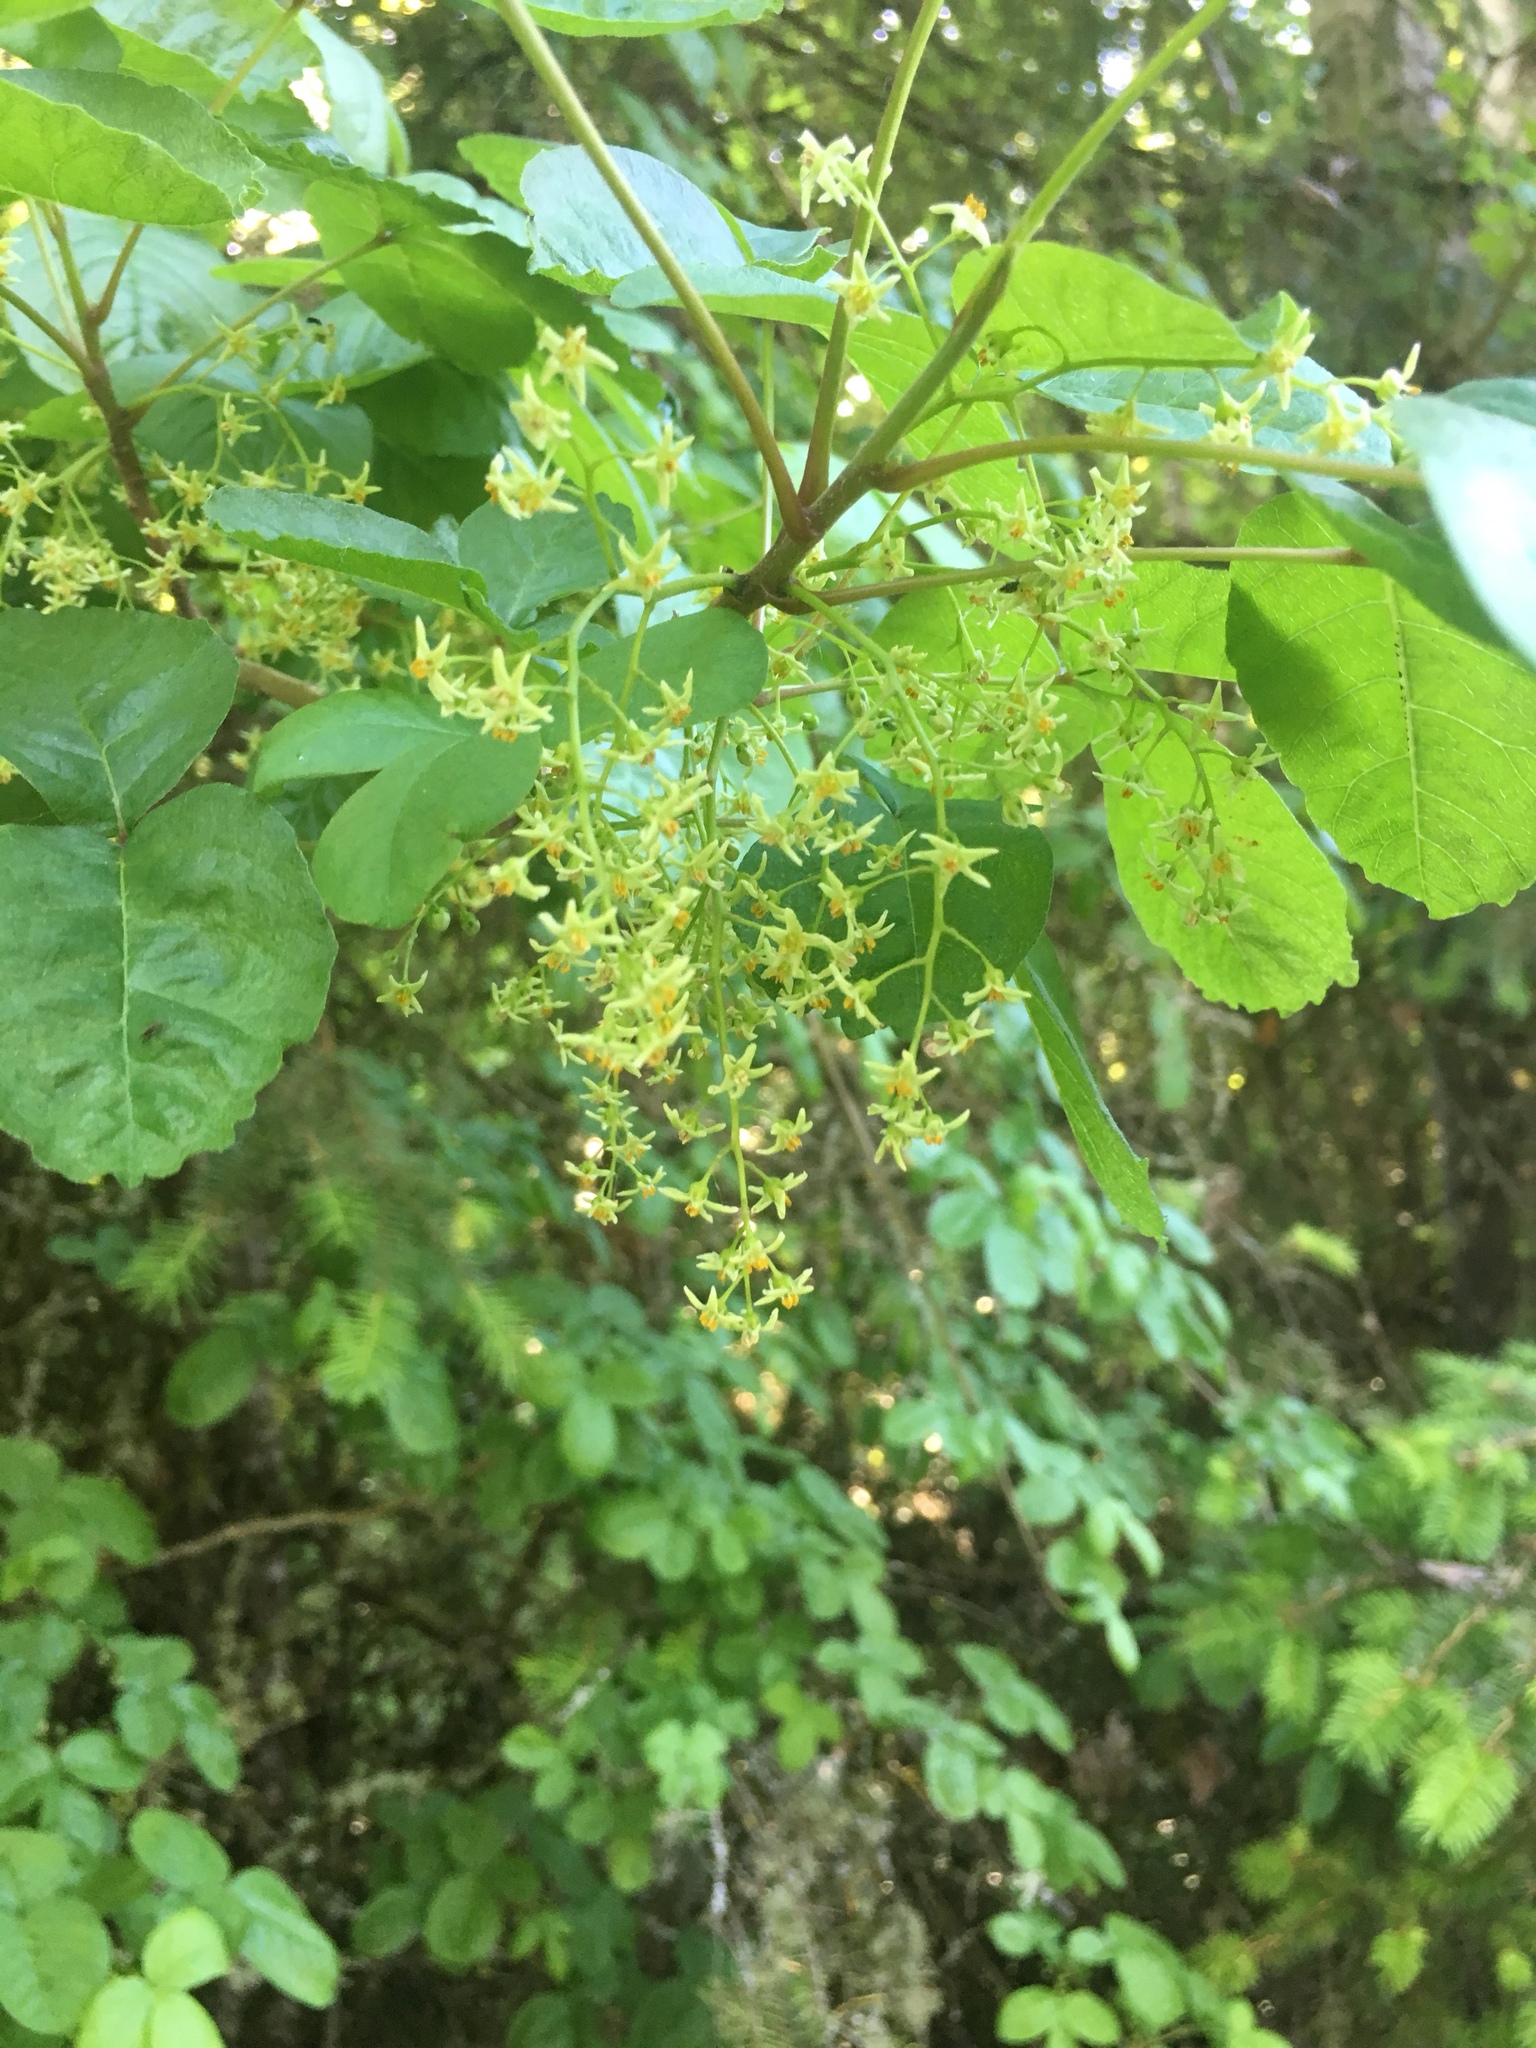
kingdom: Plantae
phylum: Tracheophyta
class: Magnoliopsida
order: Sapindales
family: Anacardiaceae
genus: Toxicodendron
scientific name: Toxicodendron diversilobum
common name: Pacific poison-oak
